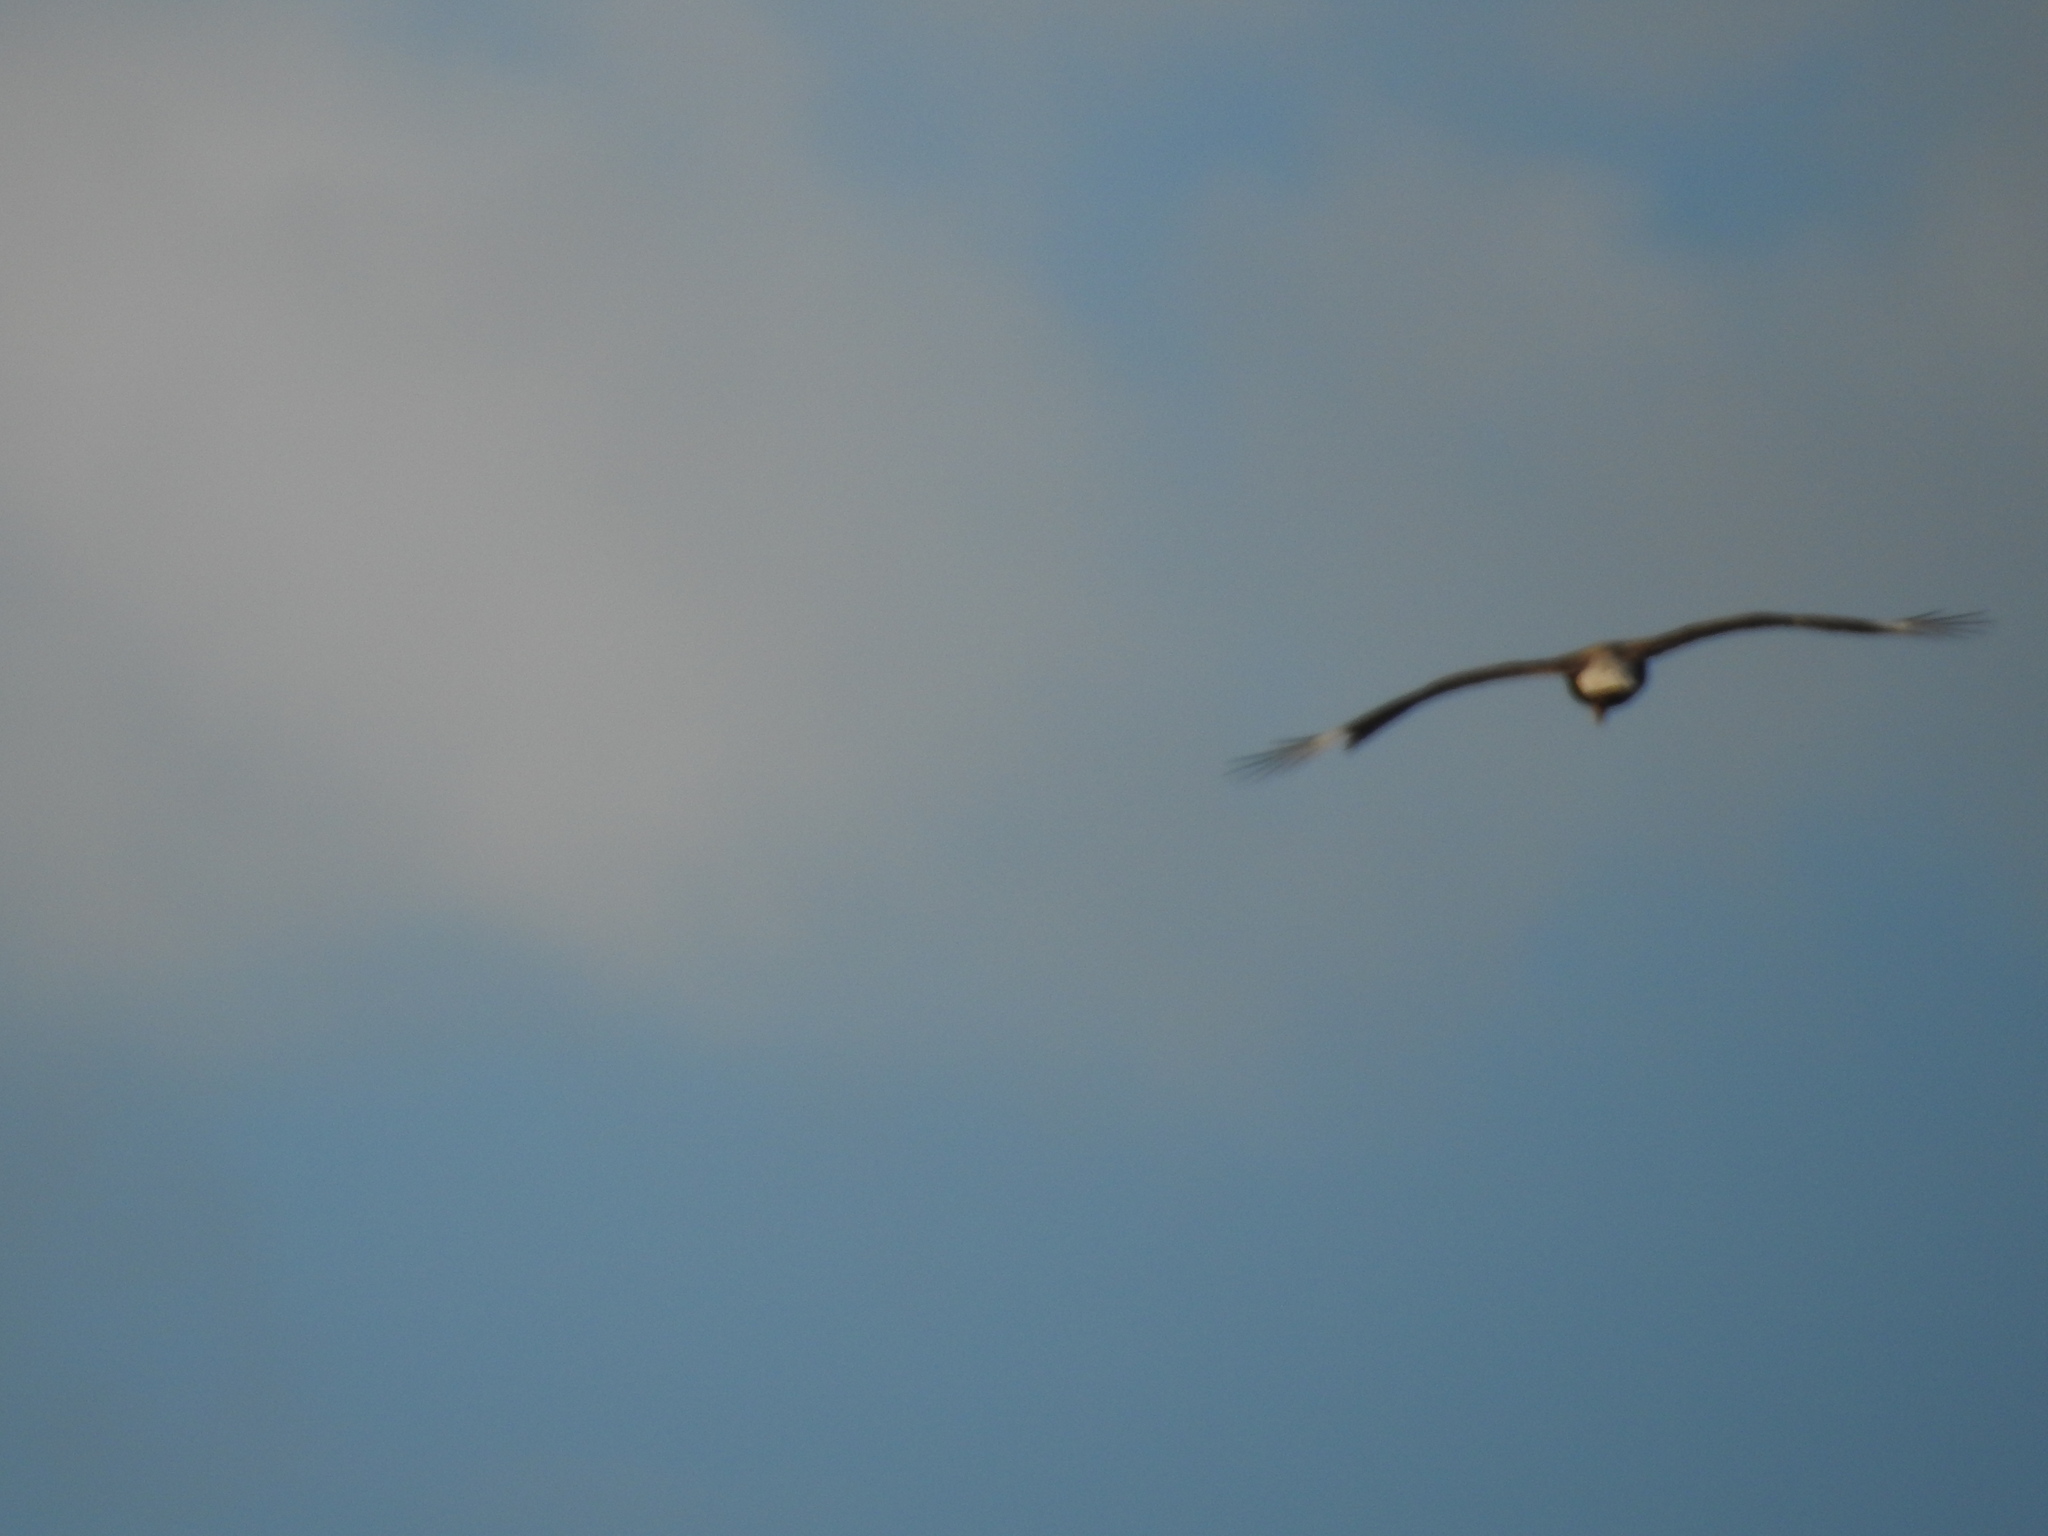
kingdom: Animalia
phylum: Chordata
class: Aves
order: Falconiformes
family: Falconidae
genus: Caracara
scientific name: Caracara plancus
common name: Southern caracara
